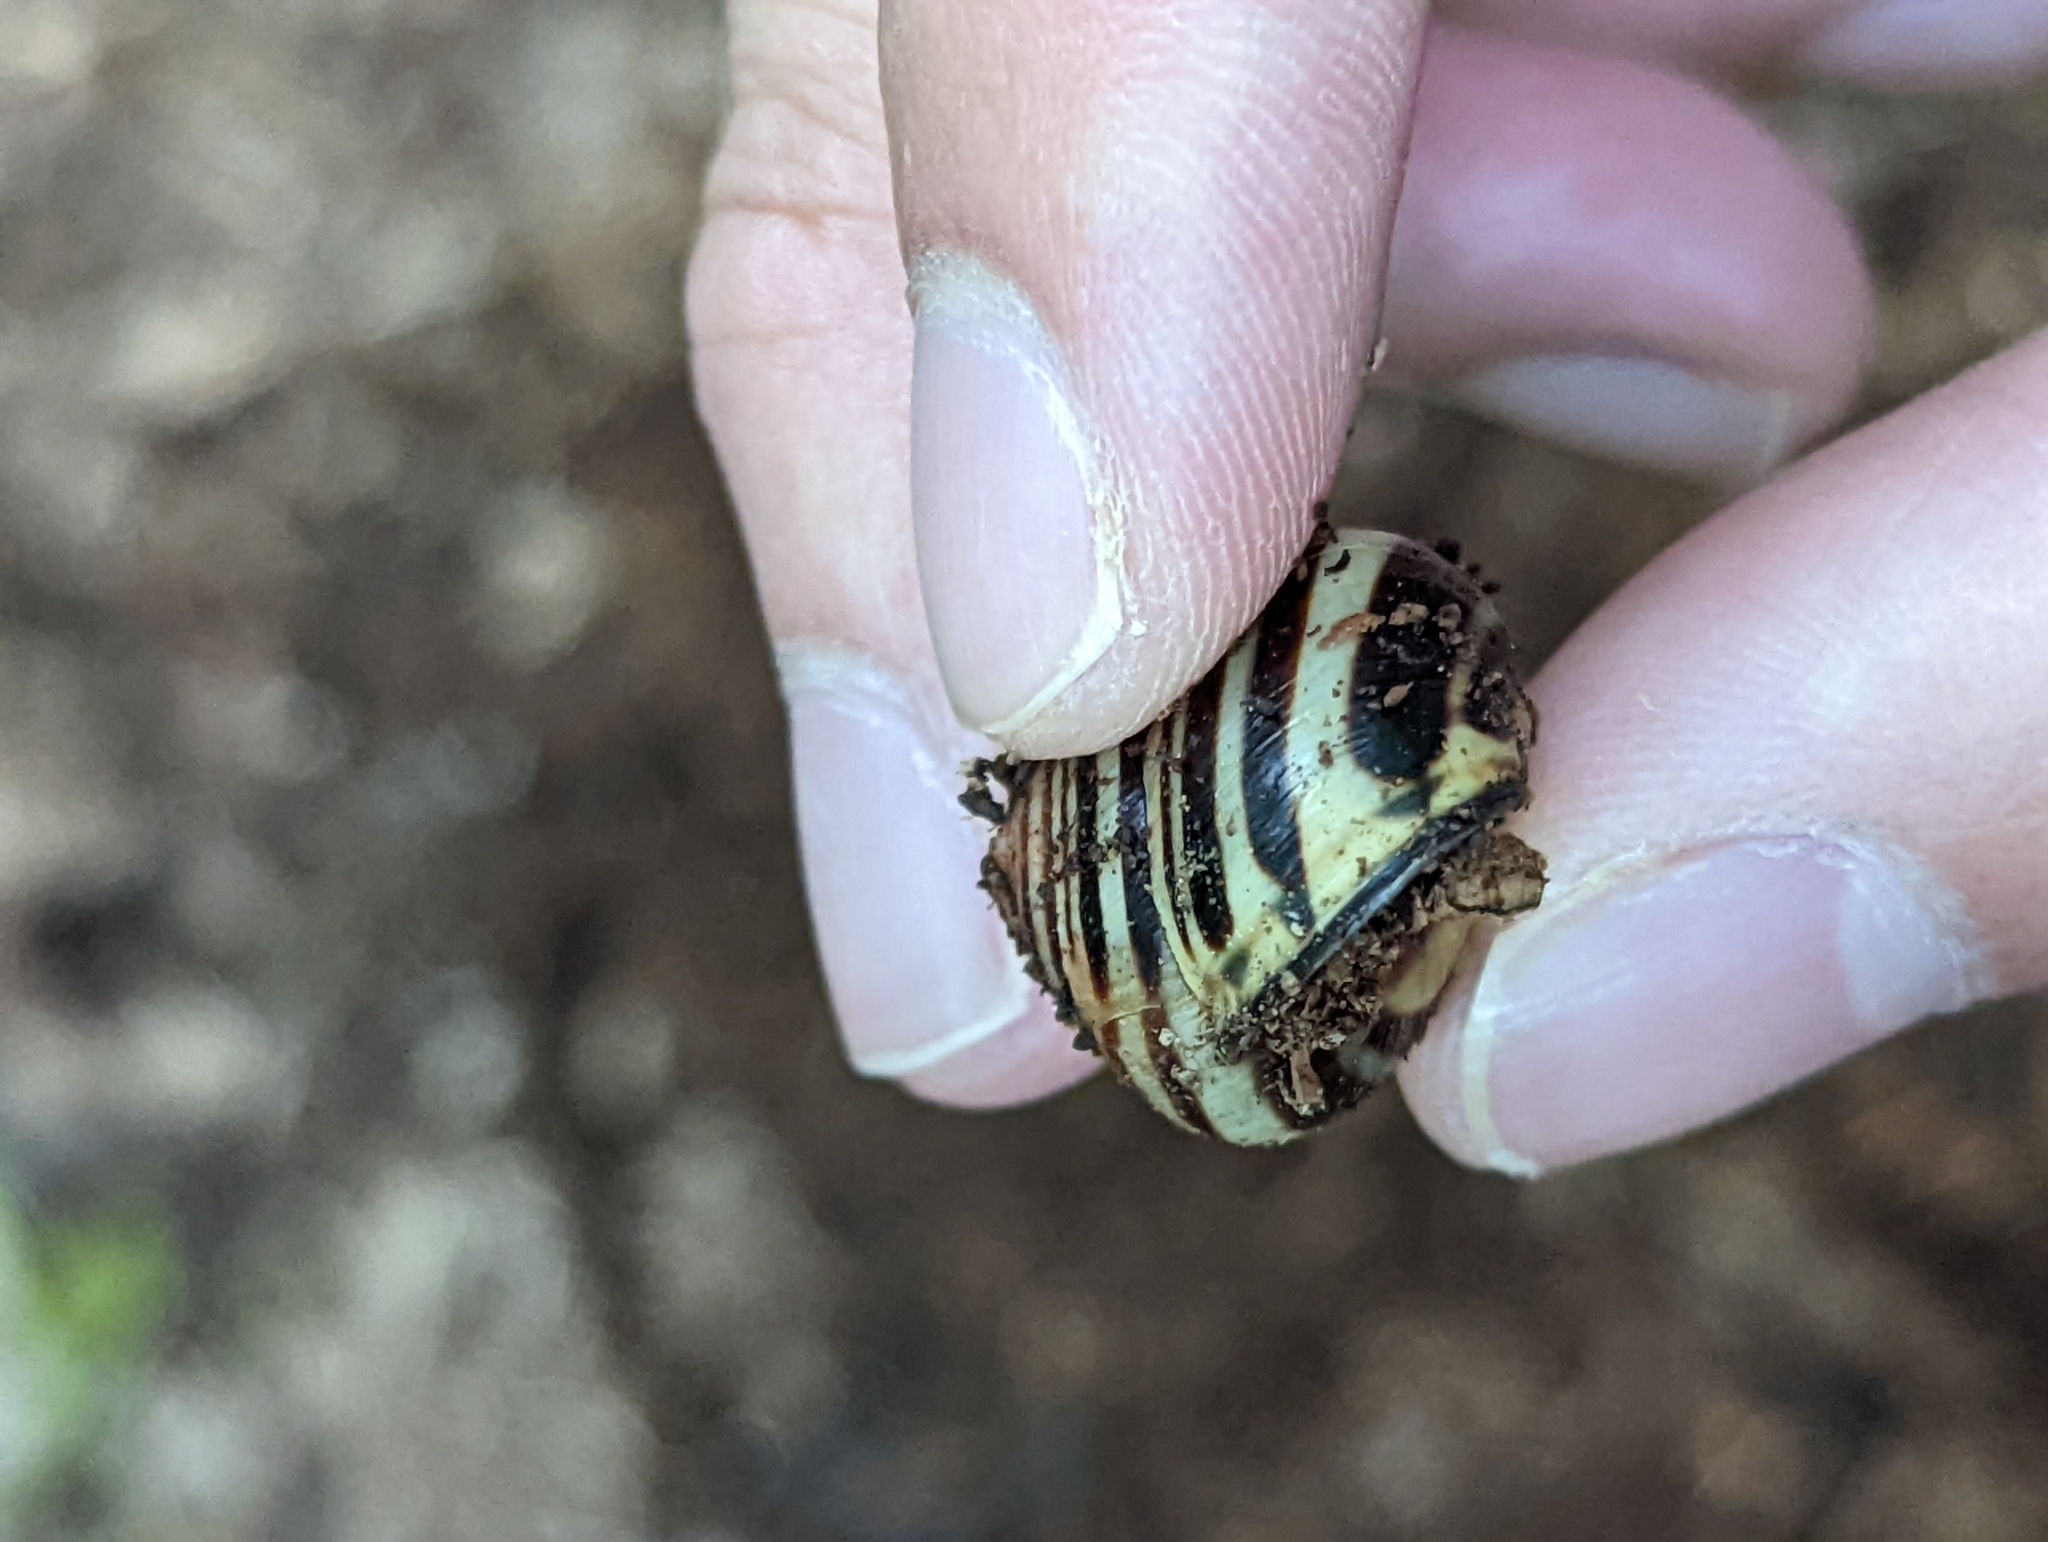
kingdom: Animalia
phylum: Mollusca
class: Gastropoda
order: Stylommatophora
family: Helicidae
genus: Cepaea
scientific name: Cepaea nemoralis
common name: Grovesnail
